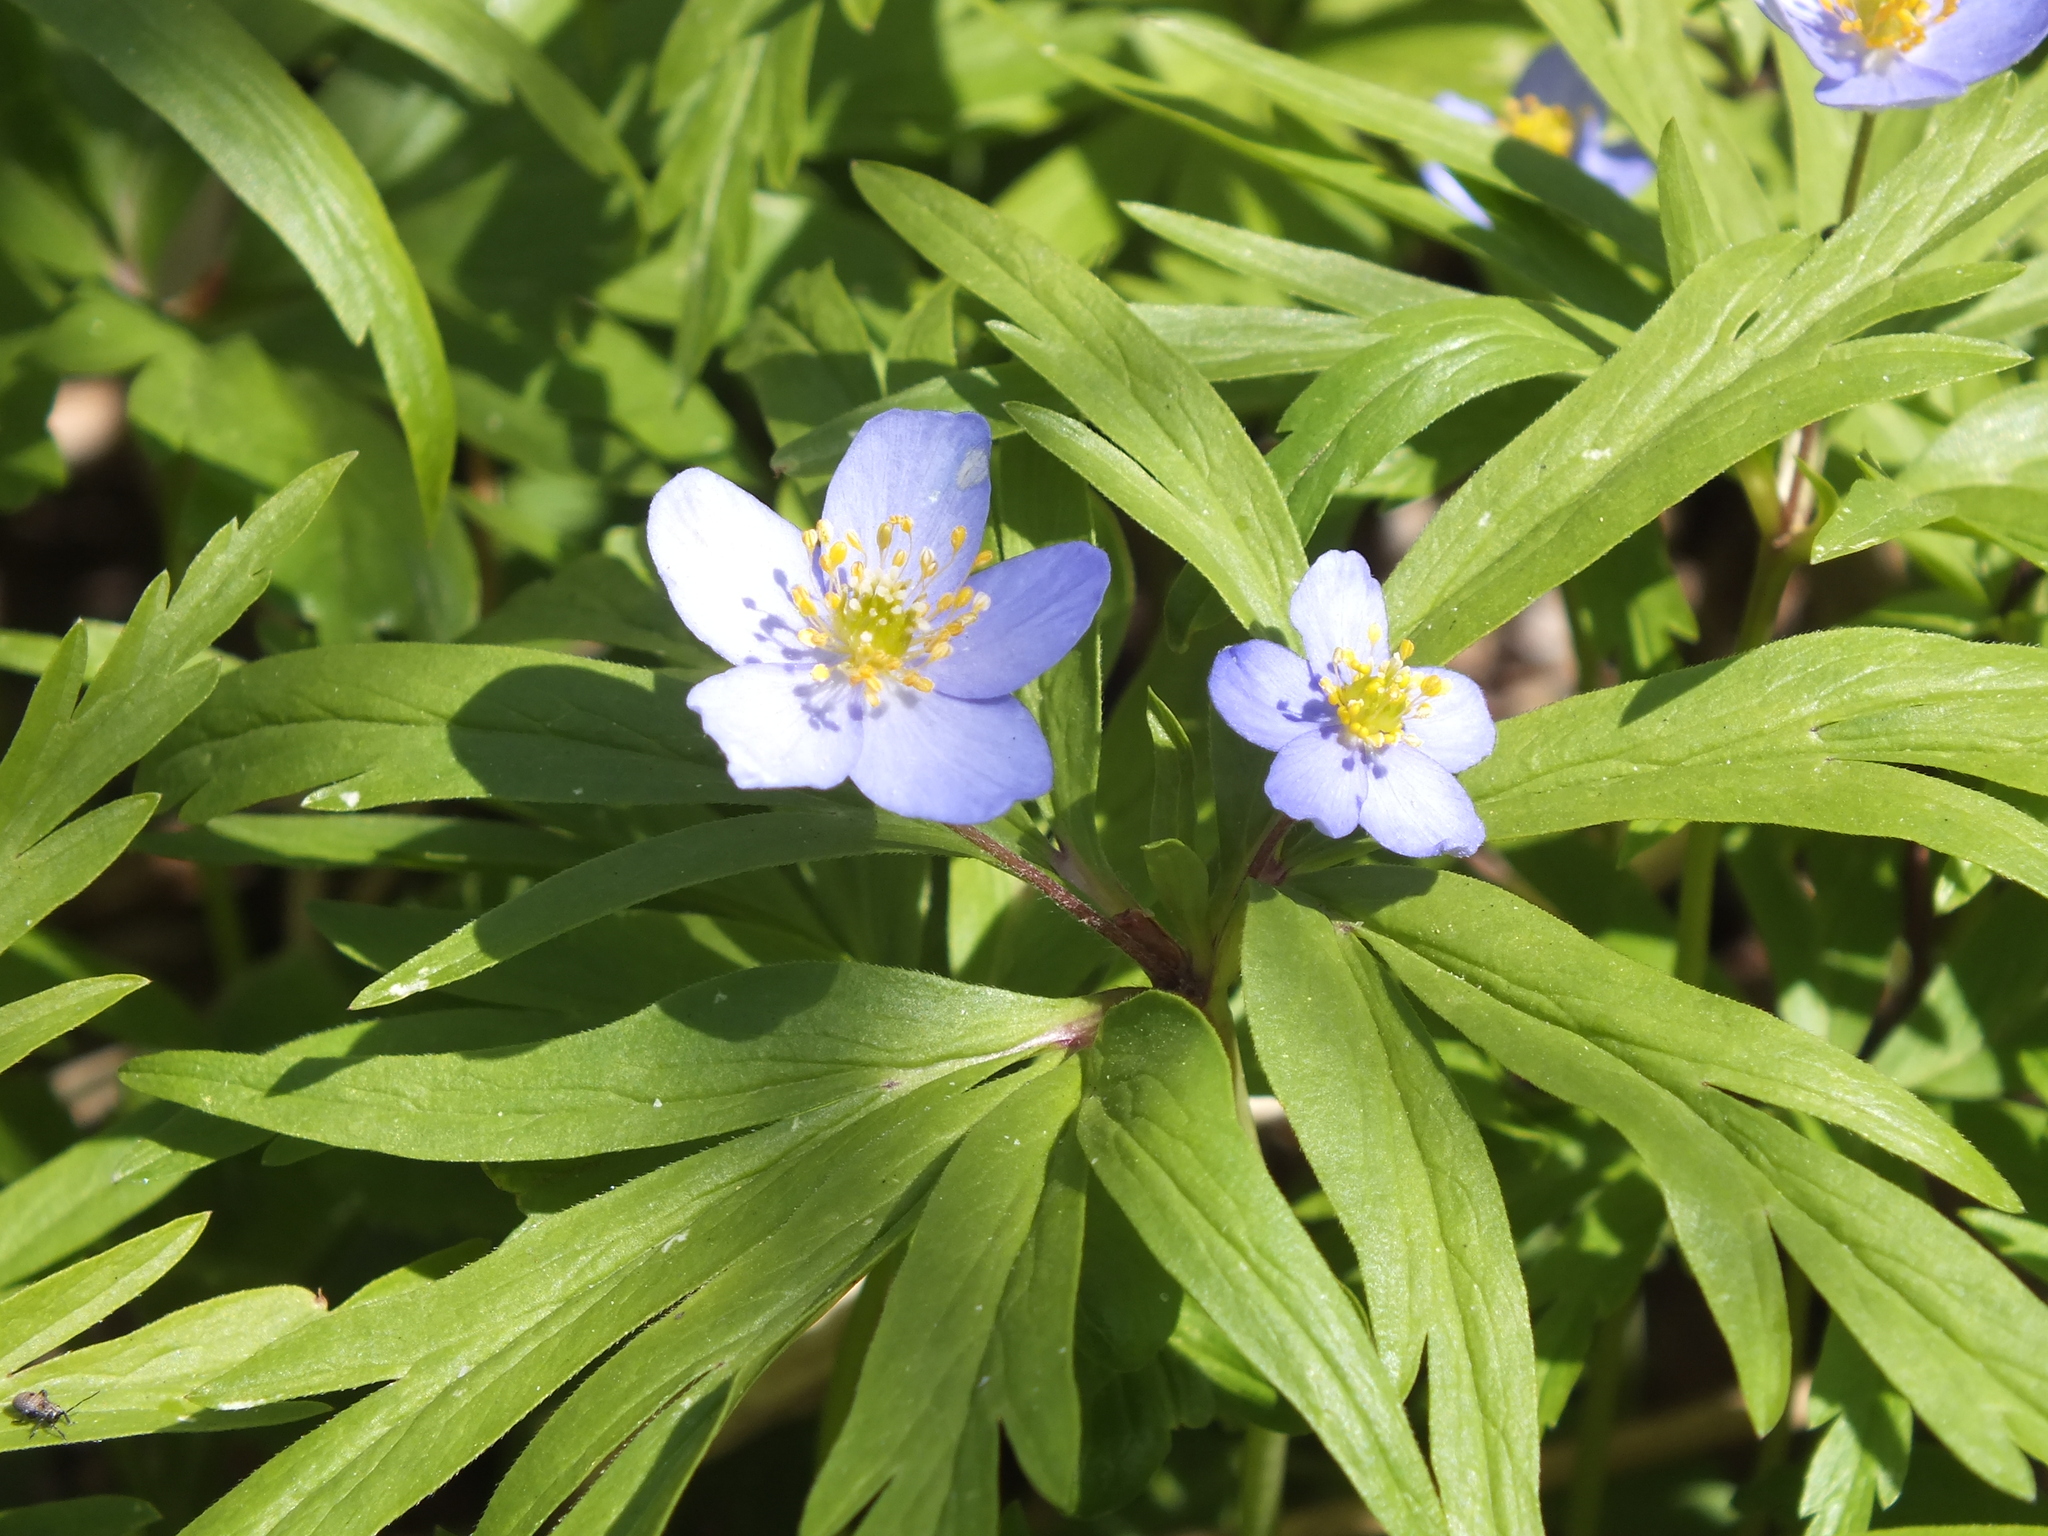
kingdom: Plantae
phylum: Tracheophyta
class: Magnoliopsida
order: Ranunculales
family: Ranunculaceae
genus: Anemone
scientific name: Anemone caerulea
